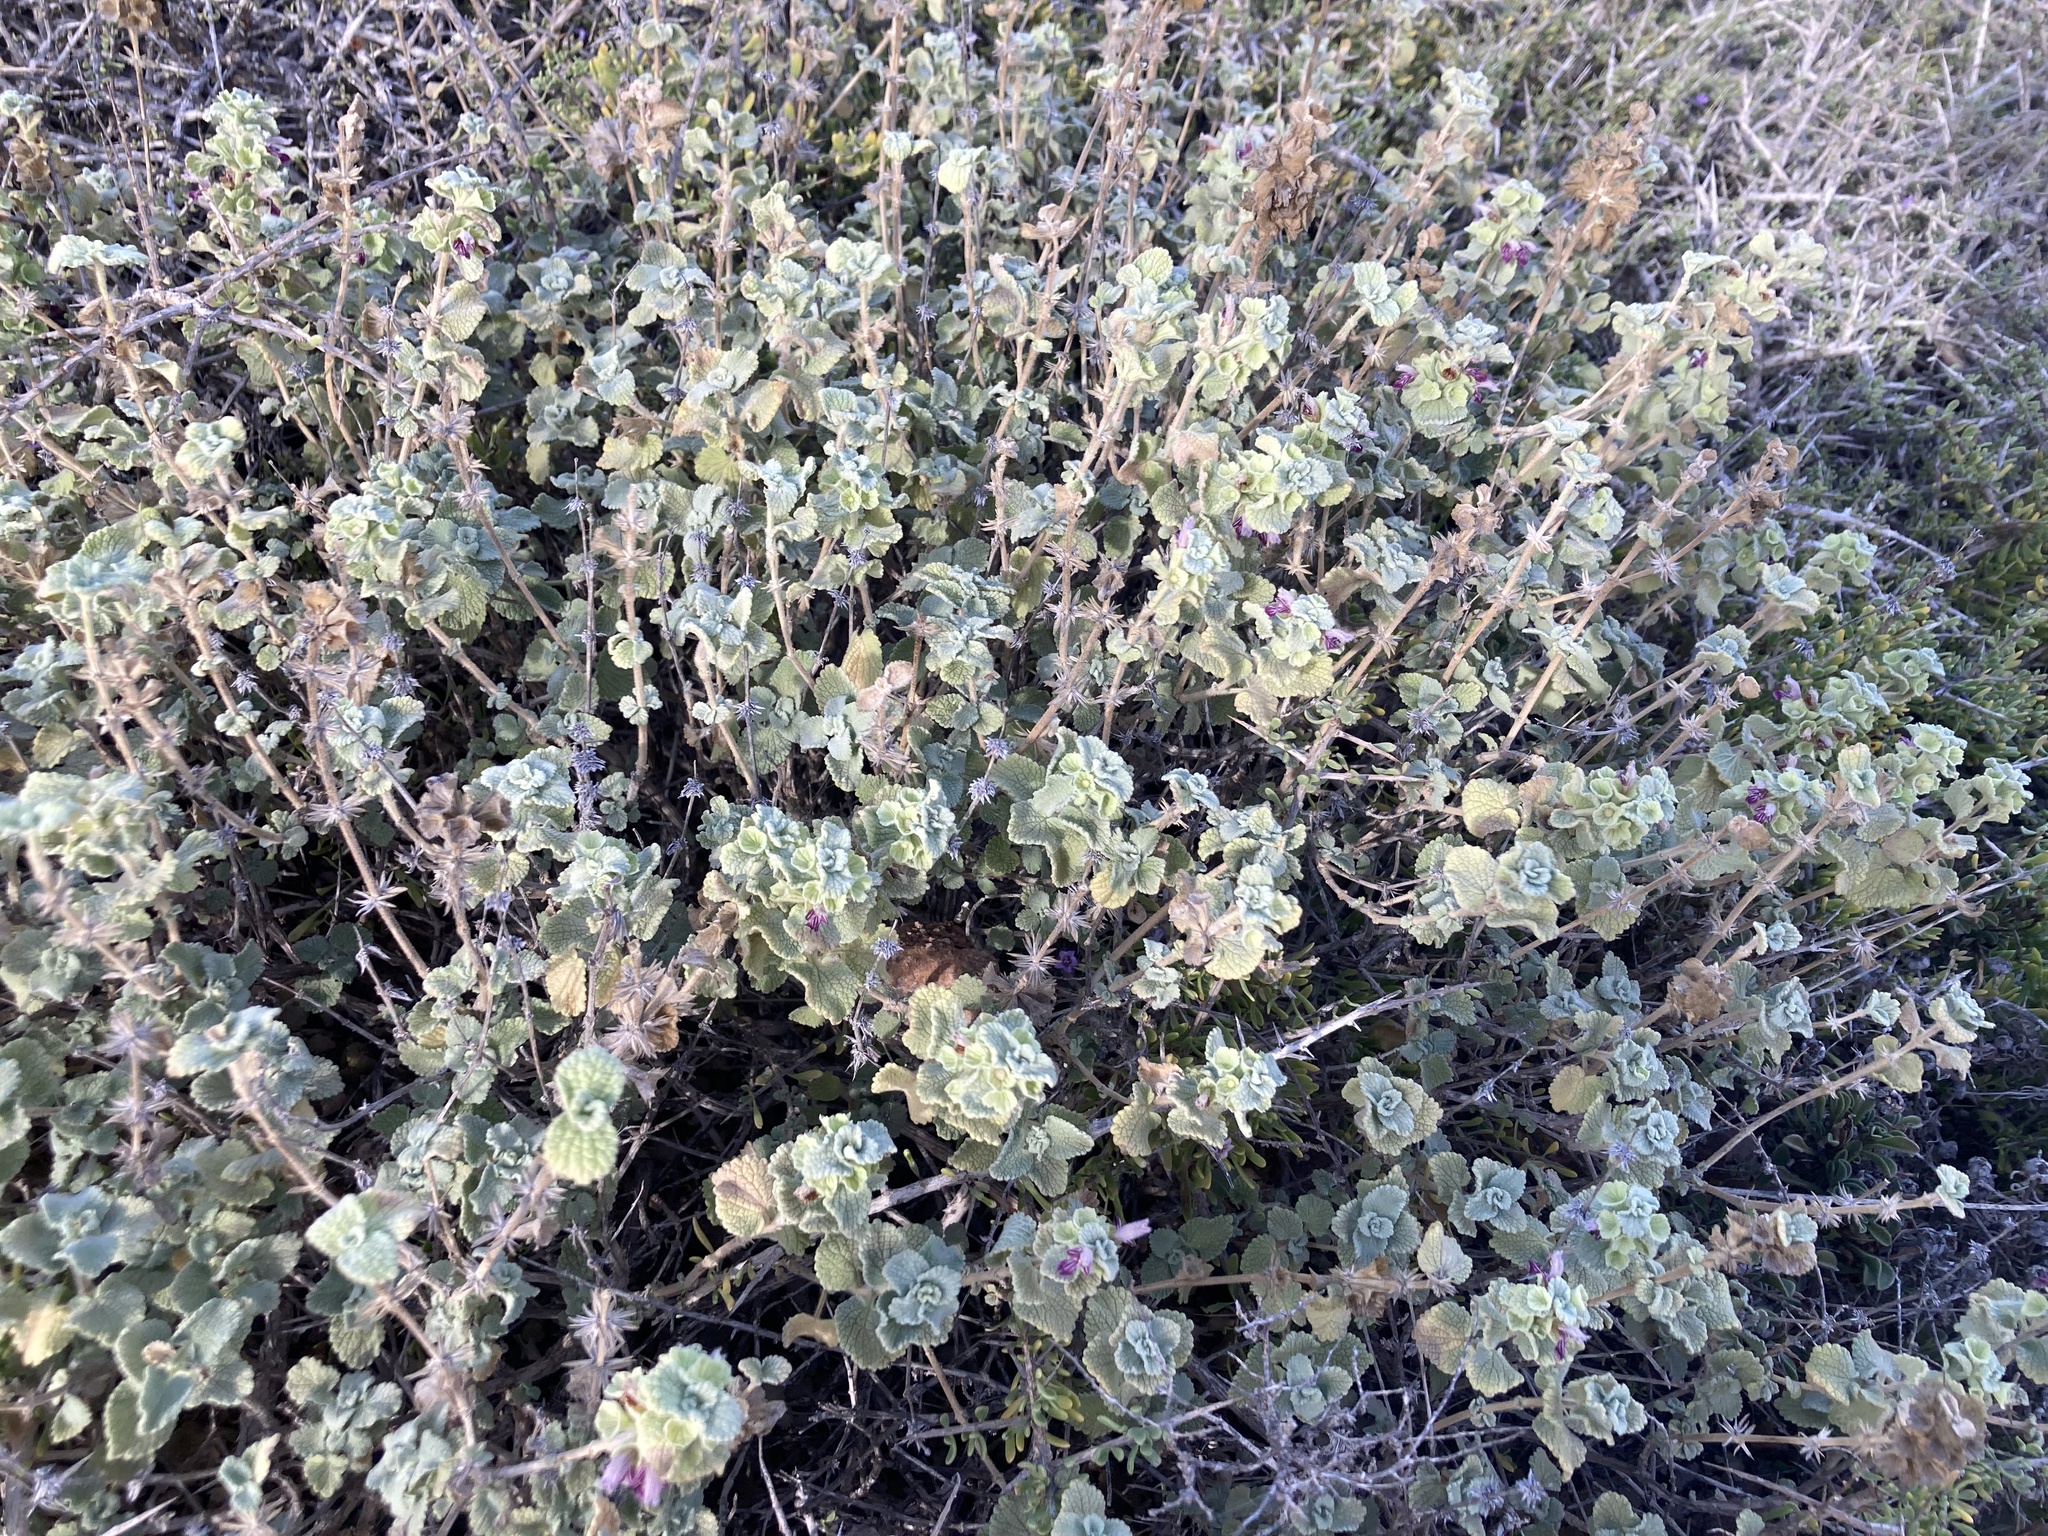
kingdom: Plantae
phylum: Tracheophyta
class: Magnoliopsida
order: Lamiales
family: Lamiaceae
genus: Pseudodictamnus
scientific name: Pseudodictamnus hirsutus
